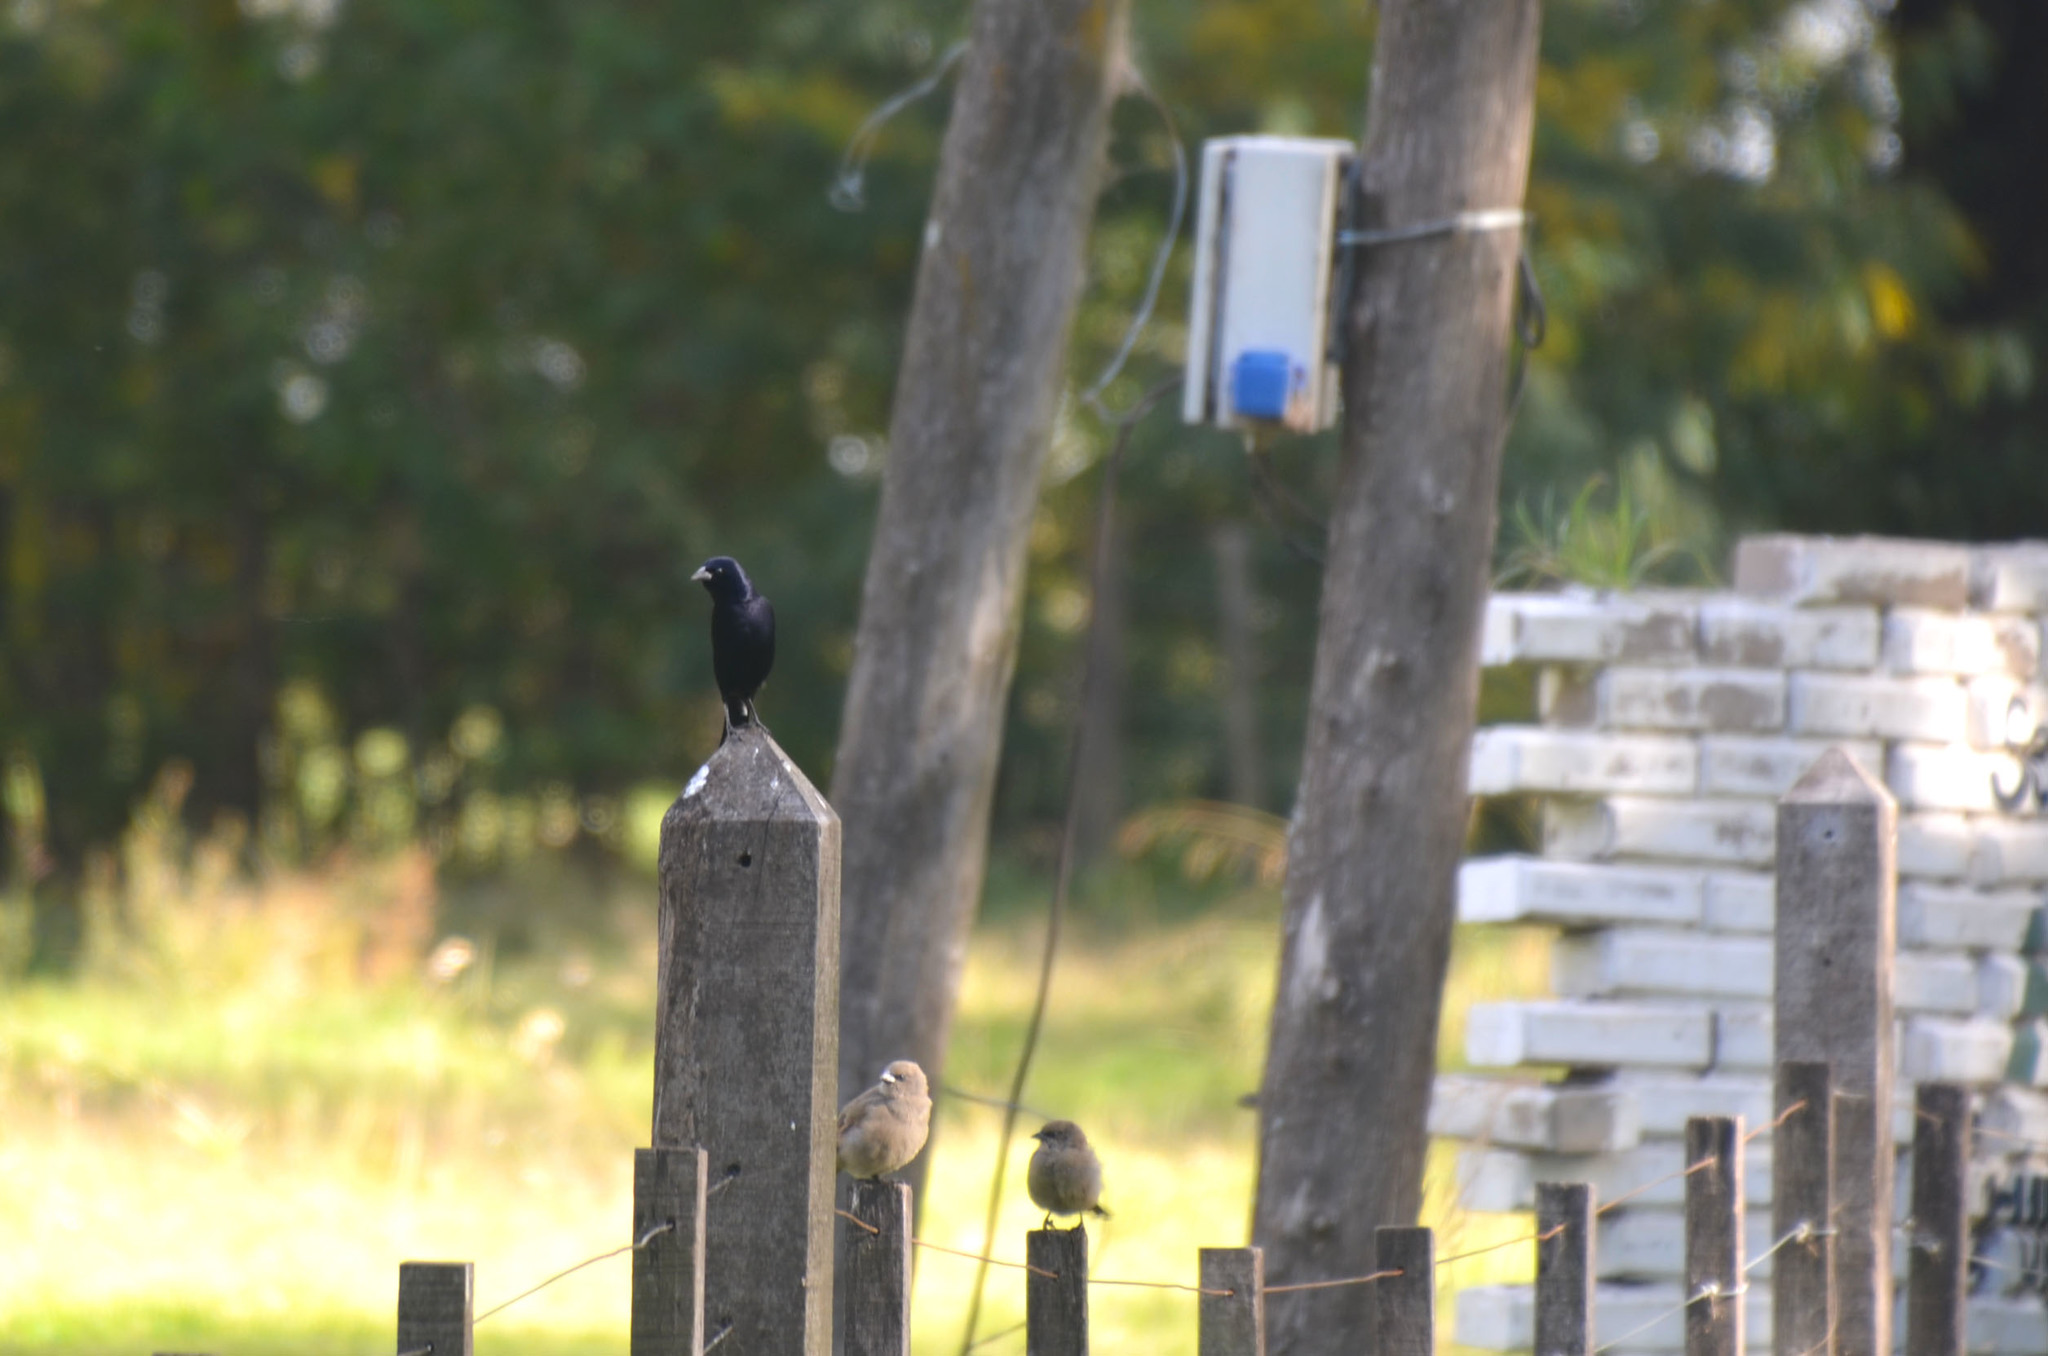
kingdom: Animalia
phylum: Chordata
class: Aves
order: Passeriformes
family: Icteridae
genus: Molothrus
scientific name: Molothrus bonariensis
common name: Shiny cowbird
